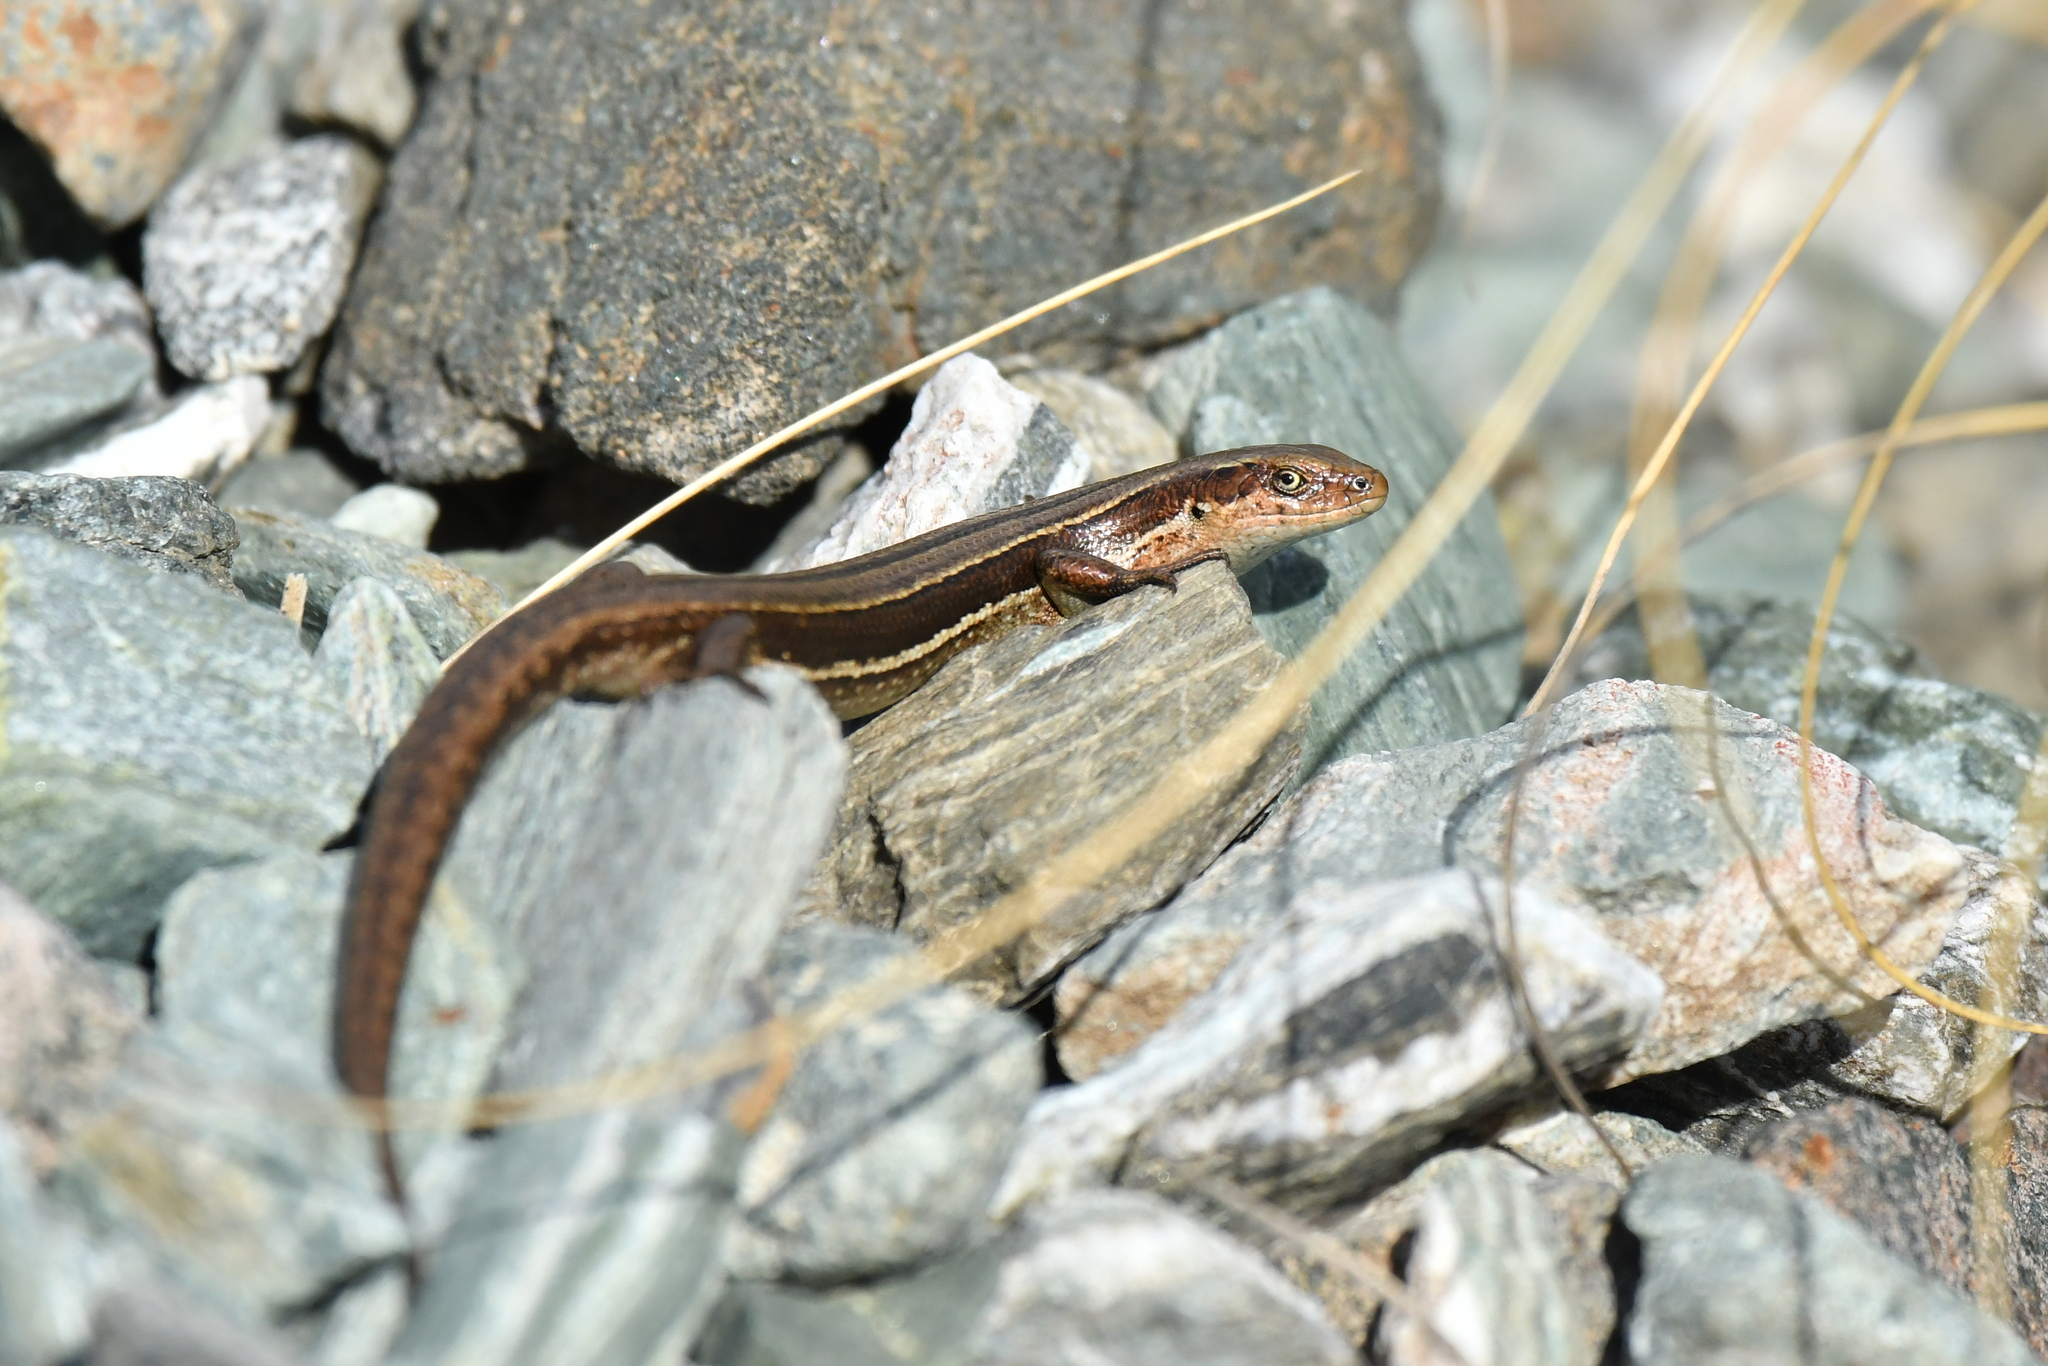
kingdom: Animalia
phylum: Chordata
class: Squamata
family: Scincidae
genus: Oligosoma
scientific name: Oligosoma repens
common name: Eyres skink
